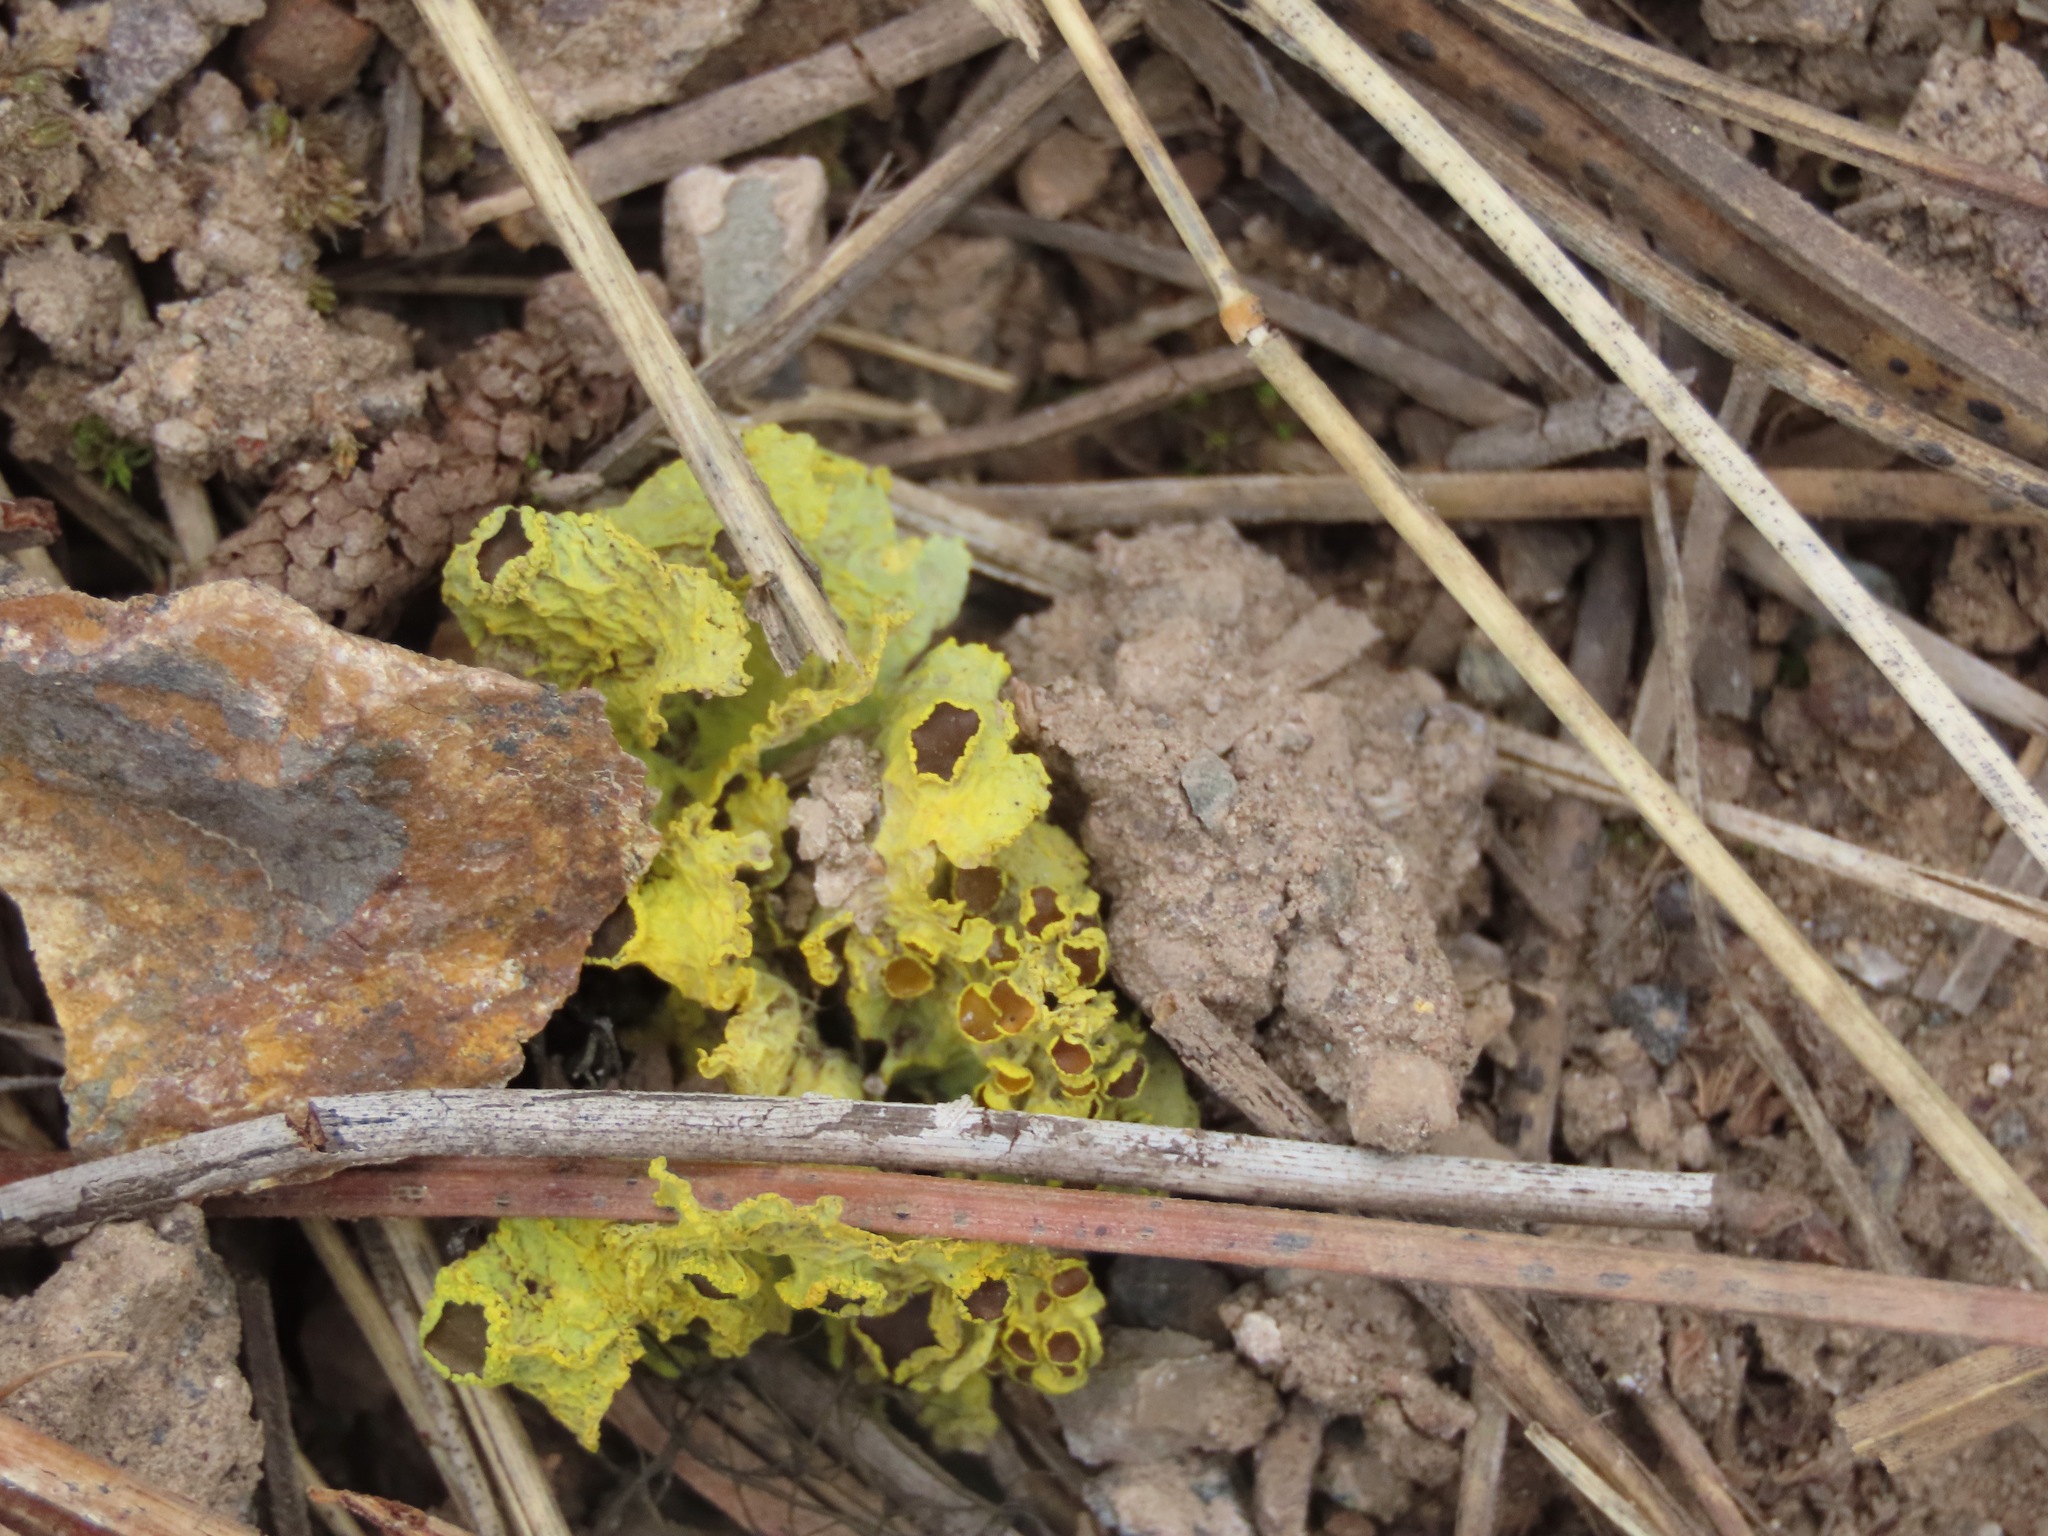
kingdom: Fungi
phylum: Ascomycota
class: Lecanoromycetes
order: Lecanorales
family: Parmeliaceae
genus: Vulpicida
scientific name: Vulpicida canadensis
